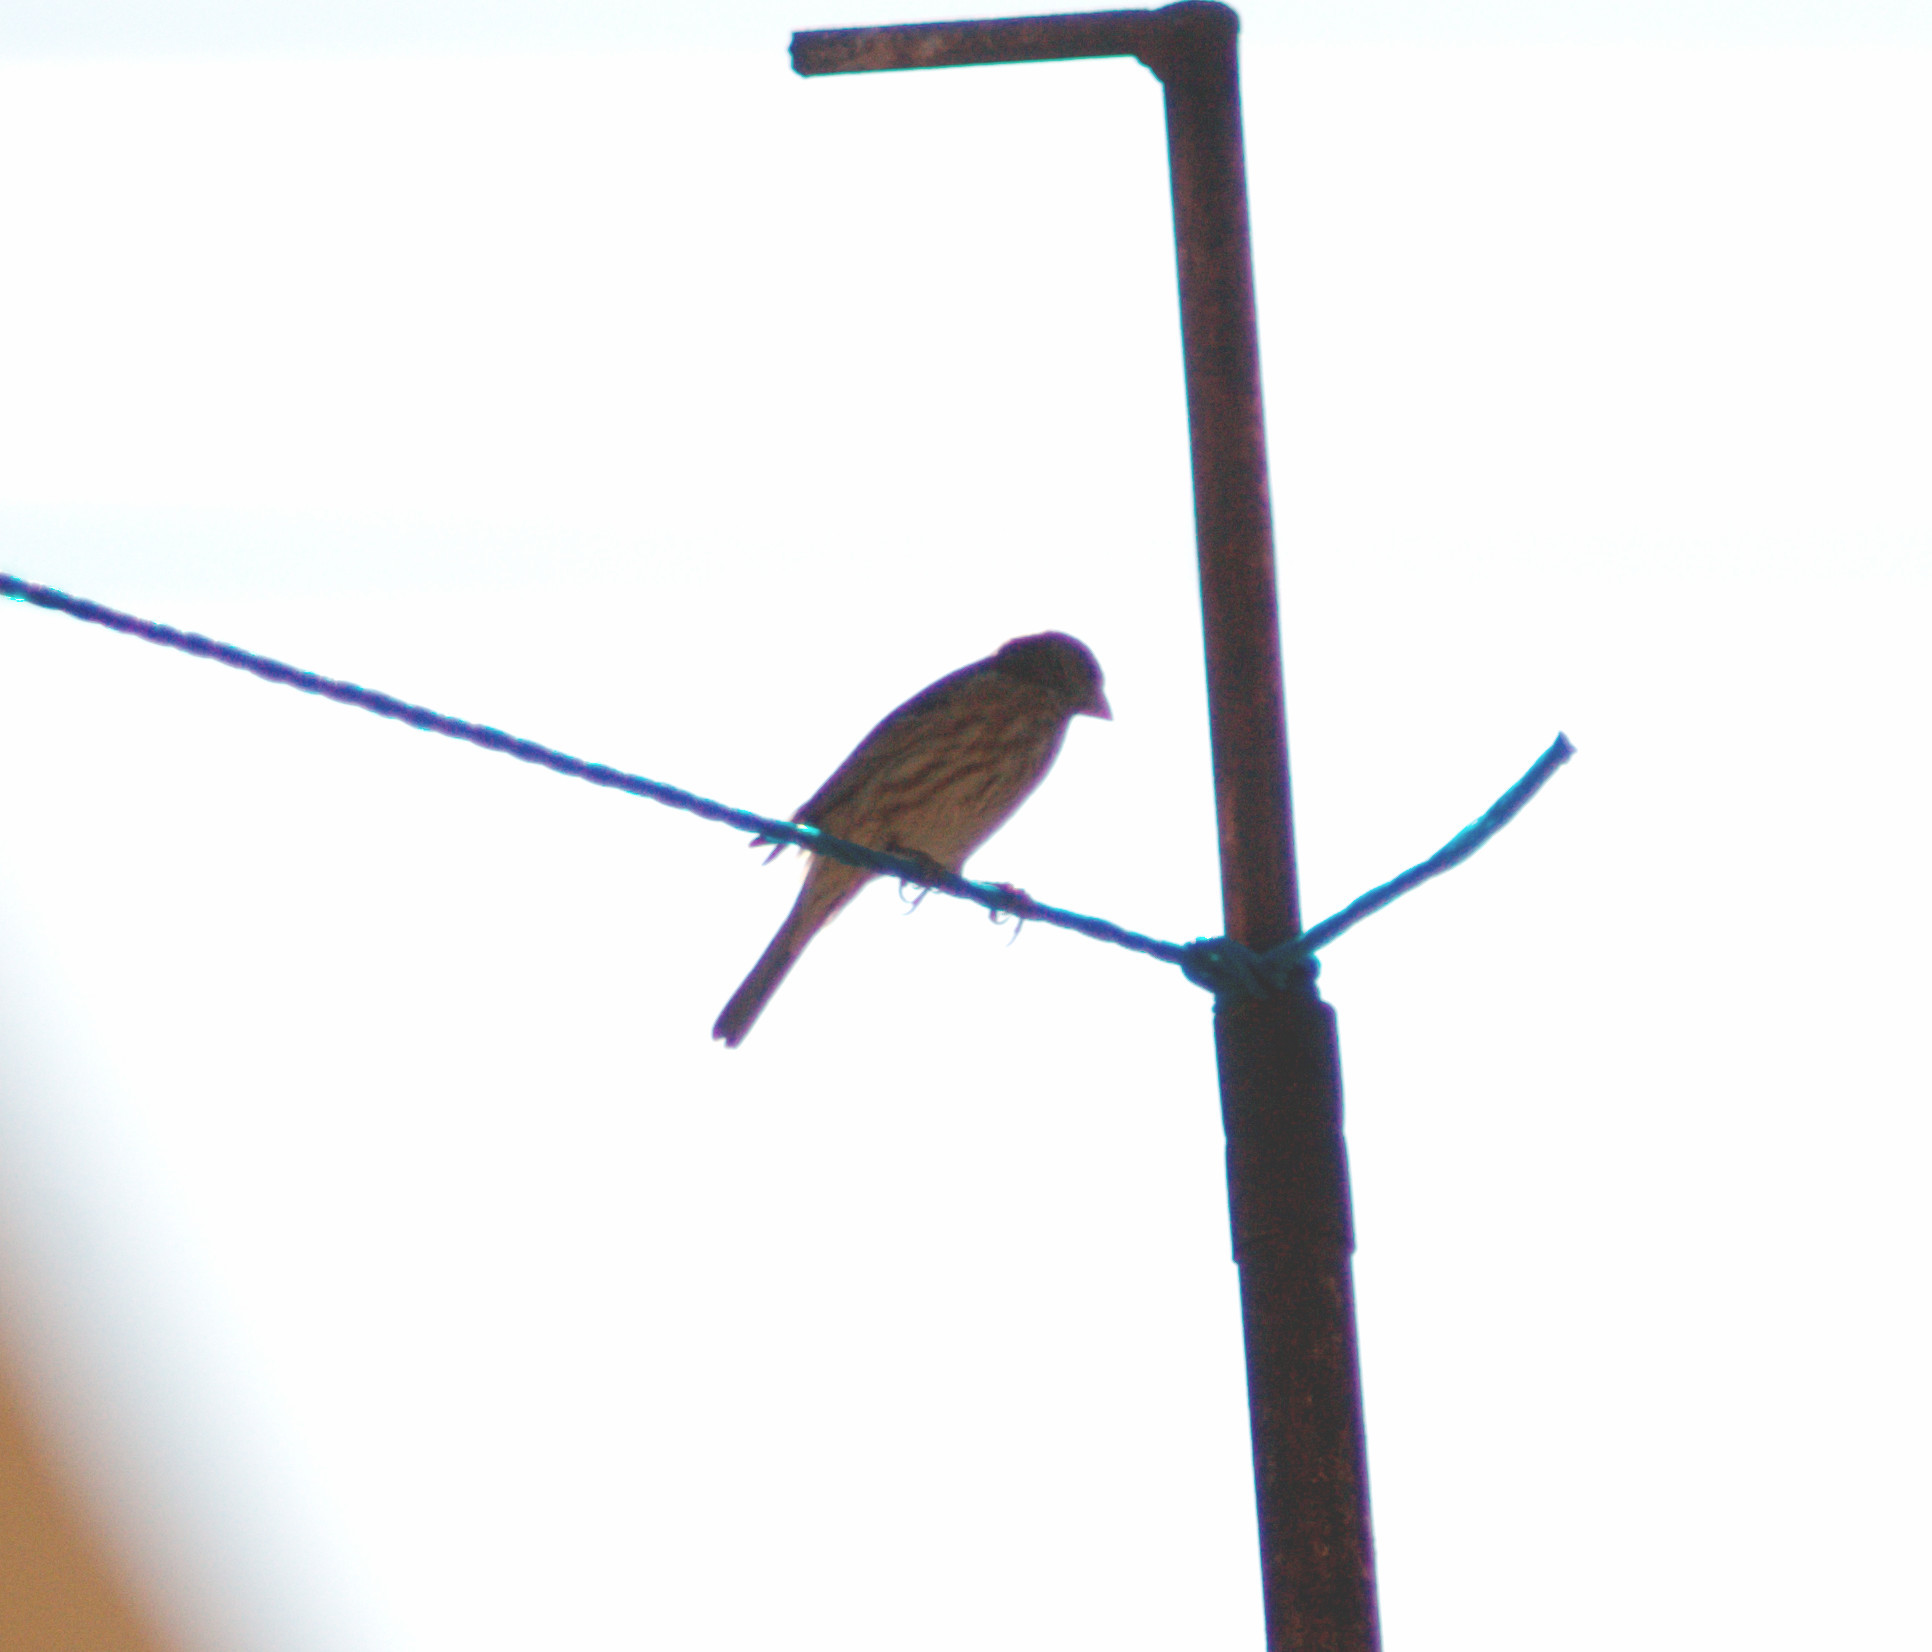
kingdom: Animalia
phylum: Chordata
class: Aves
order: Passeriformes
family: Fringillidae
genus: Haemorhous
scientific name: Haemorhous mexicanus
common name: House finch
